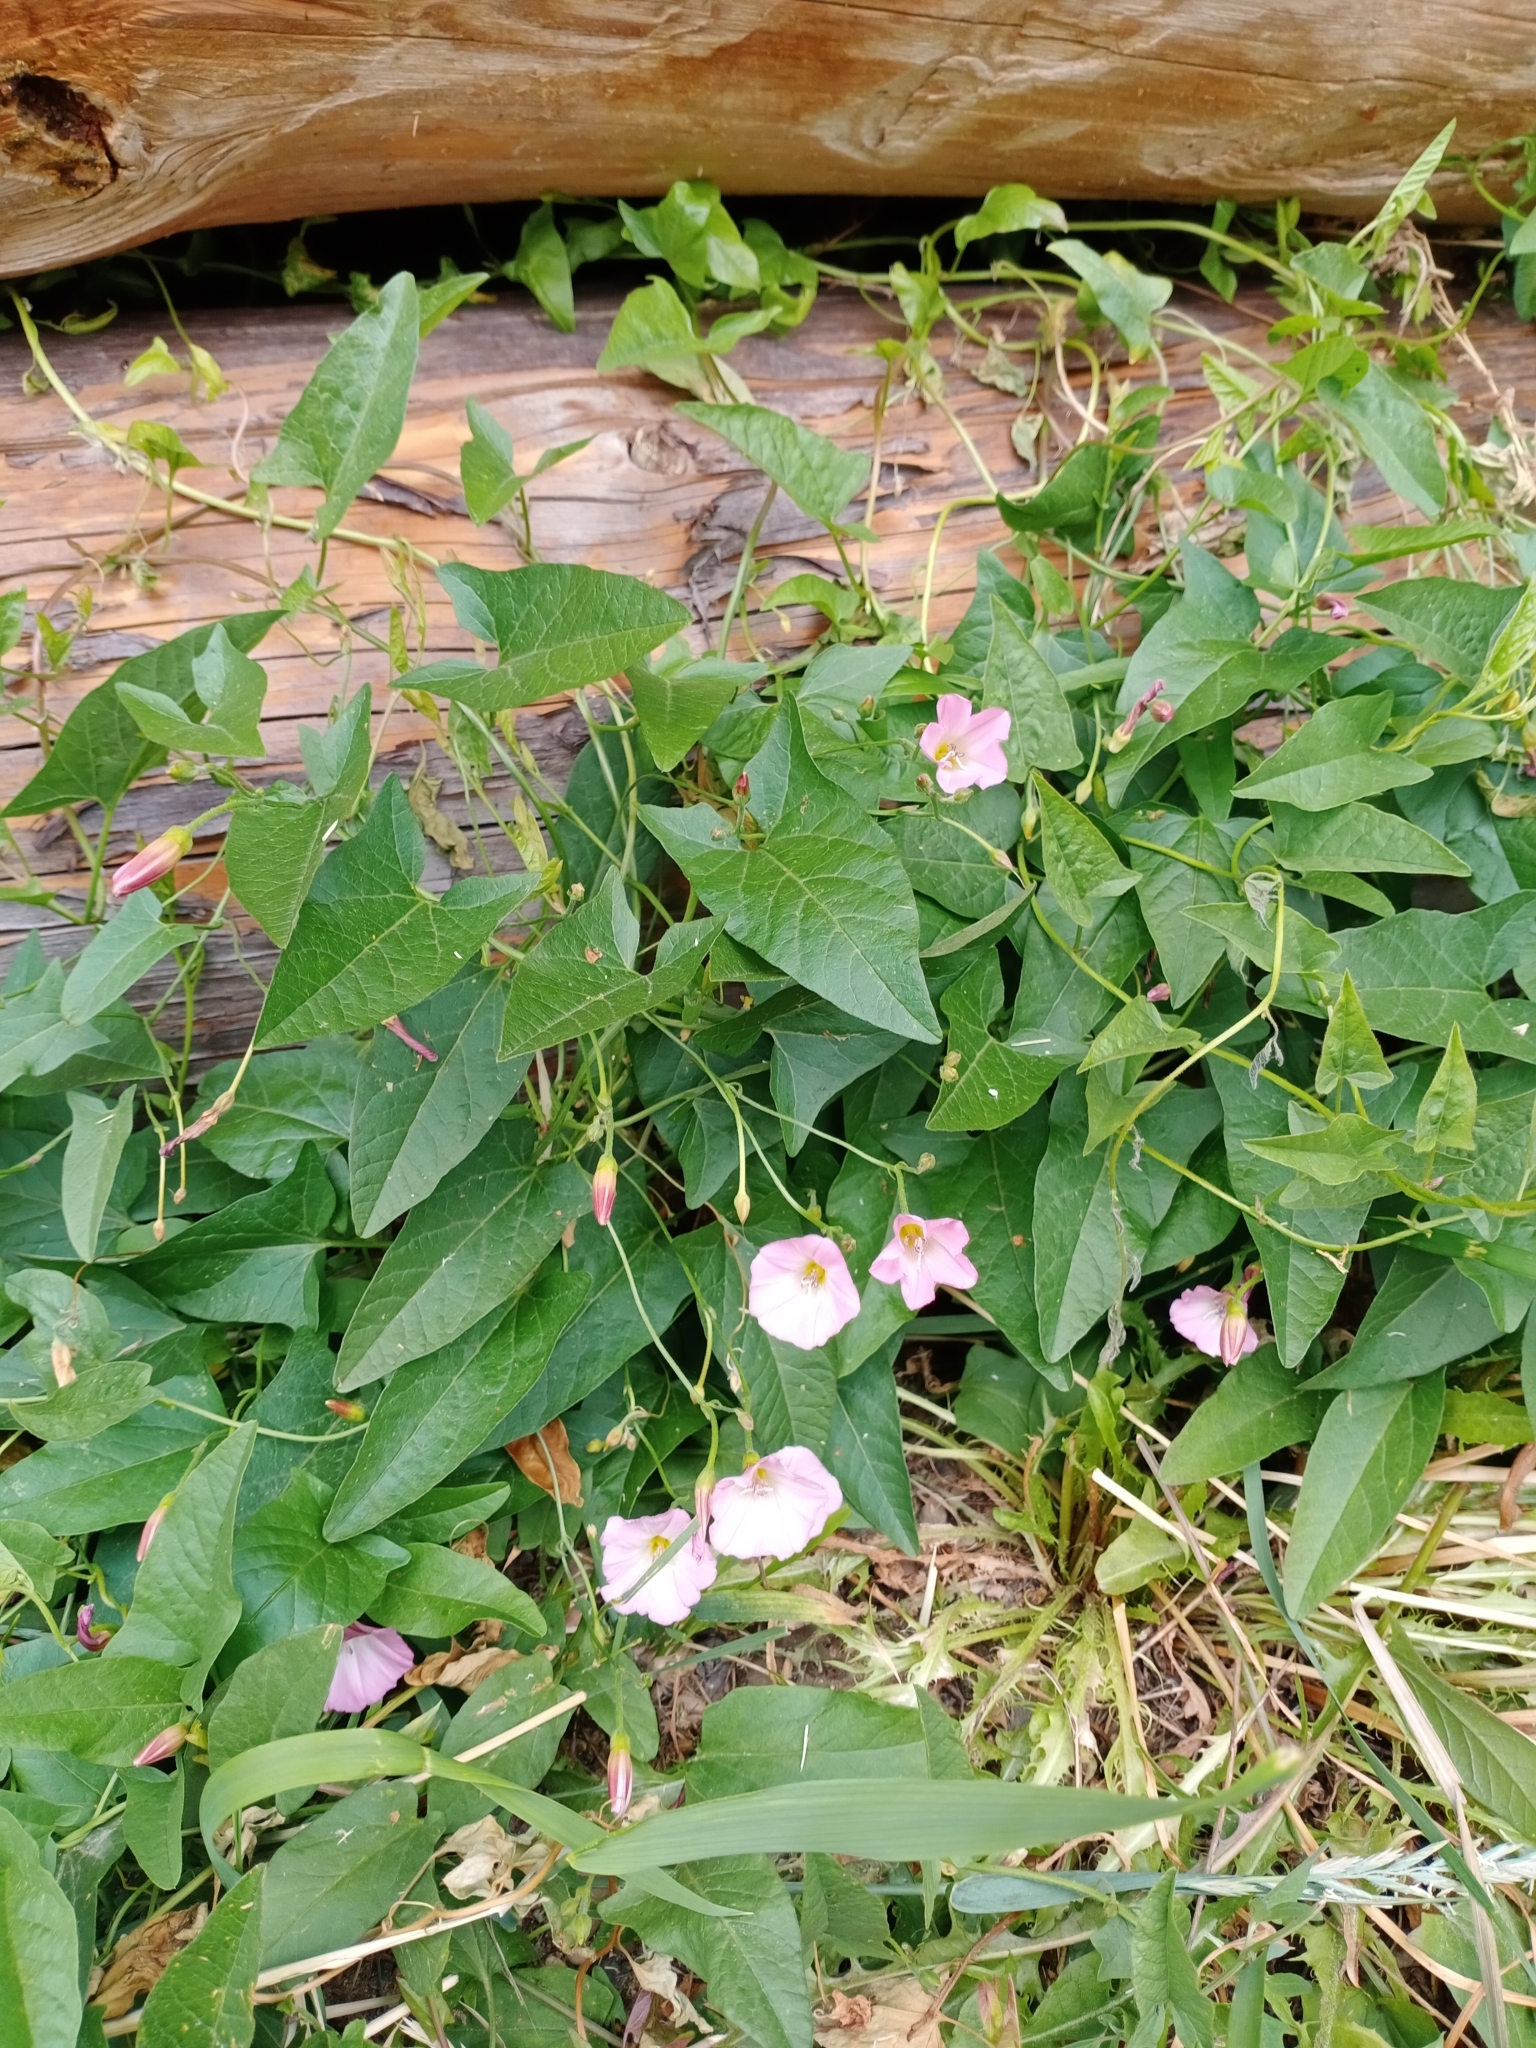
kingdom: Plantae
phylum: Tracheophyta
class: Magnoliopsida
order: Solanales
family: Convolvulaceae
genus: Convolvulus
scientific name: Convolvulus arvensis
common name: Field bindweed
